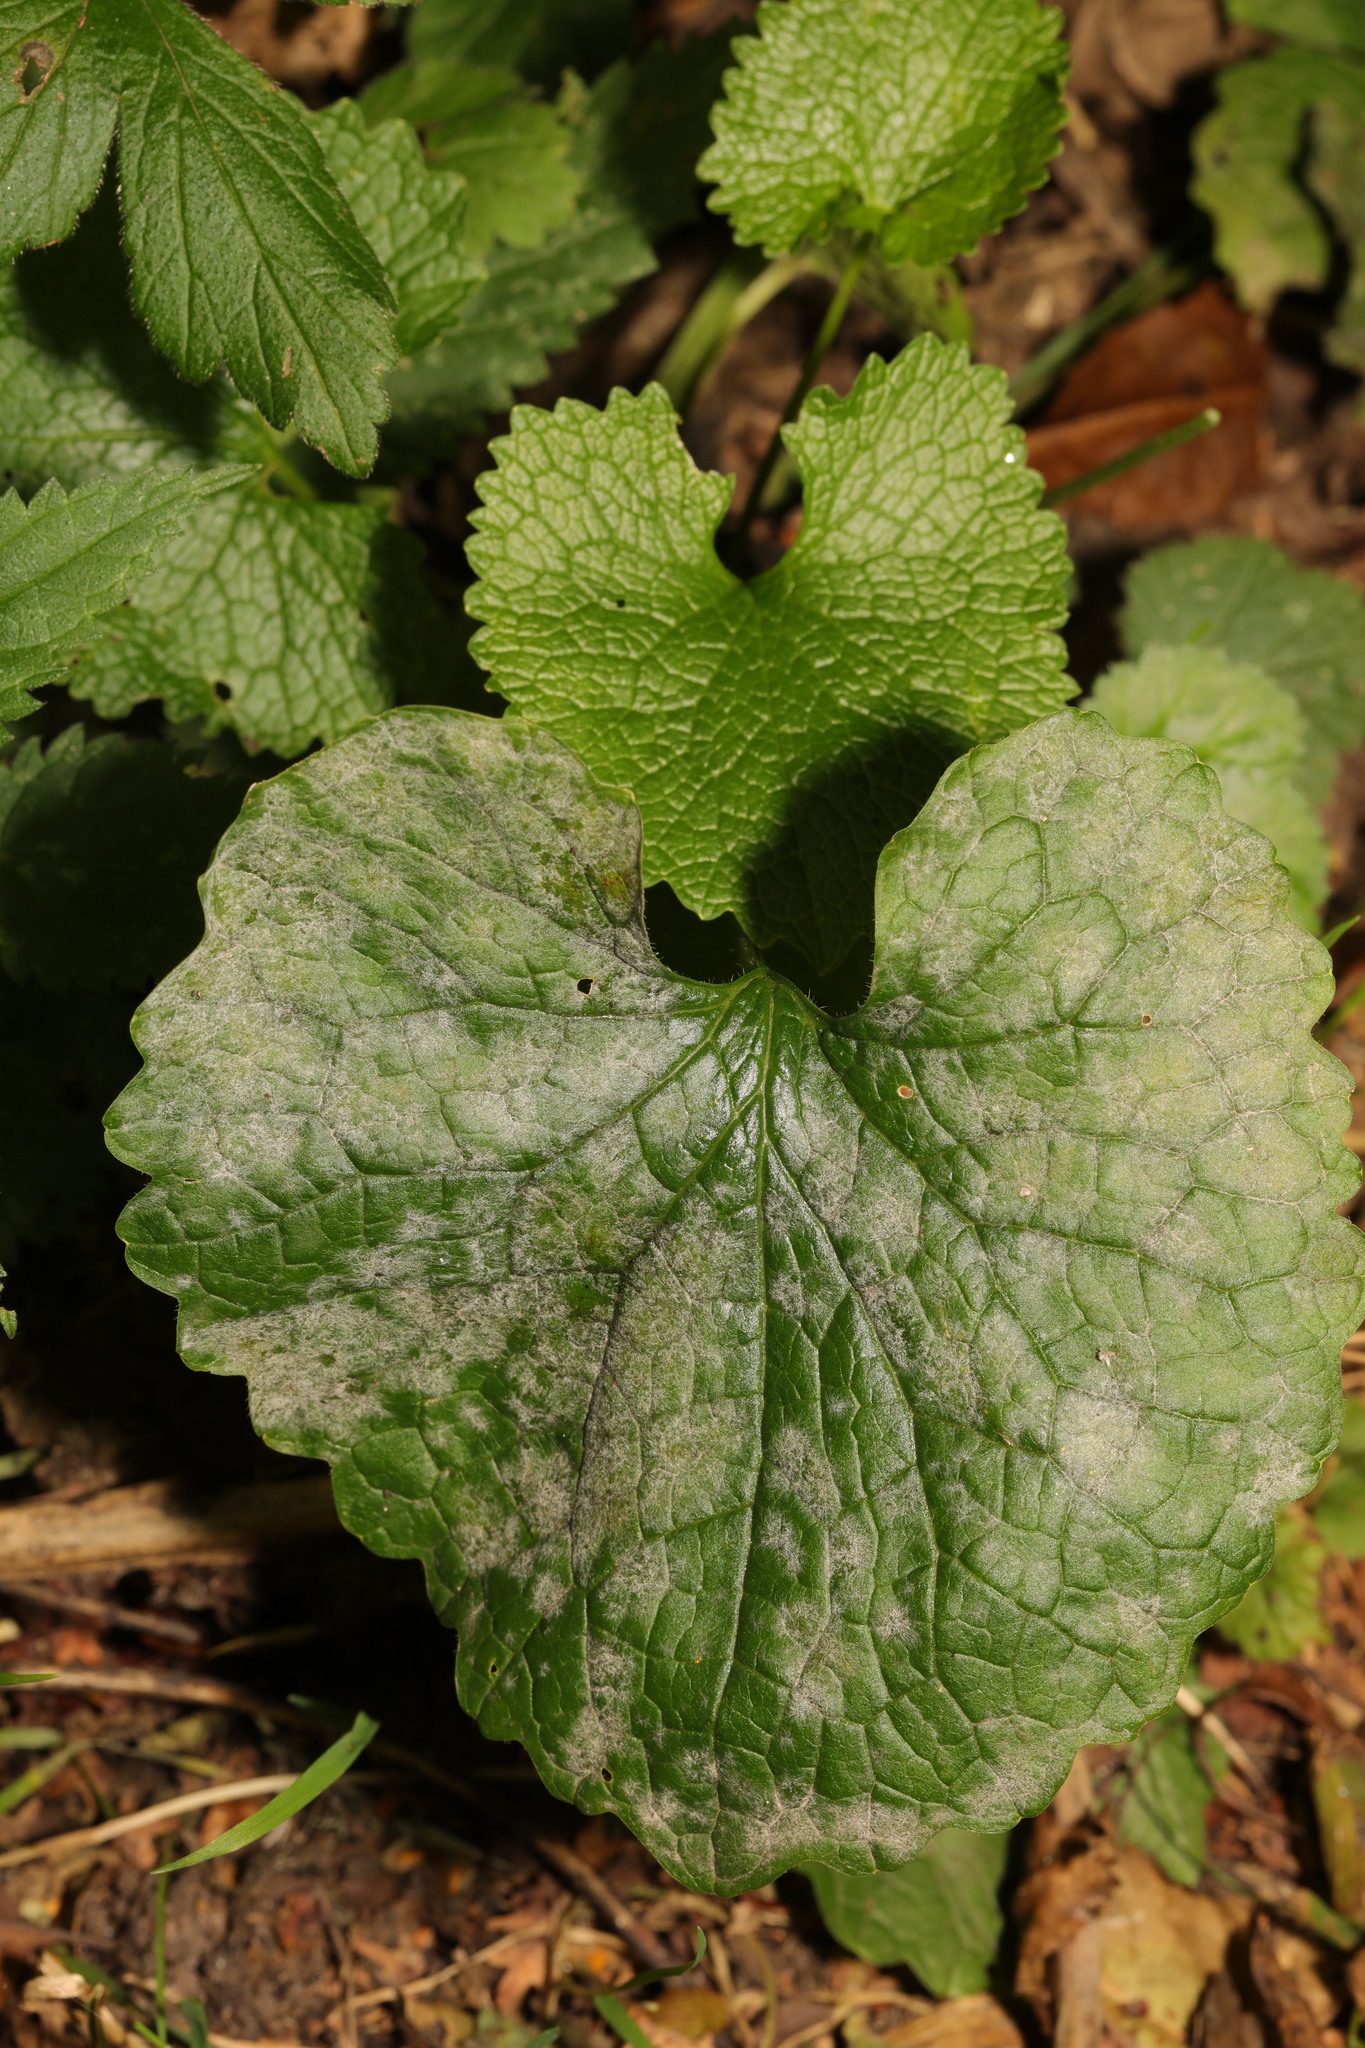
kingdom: Plantae
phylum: Tracheophyta
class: Magnoliopsida
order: Brassicales
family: Brassicaceae
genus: Alliaria
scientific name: Alliaria petiolata
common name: Garlic mustard
